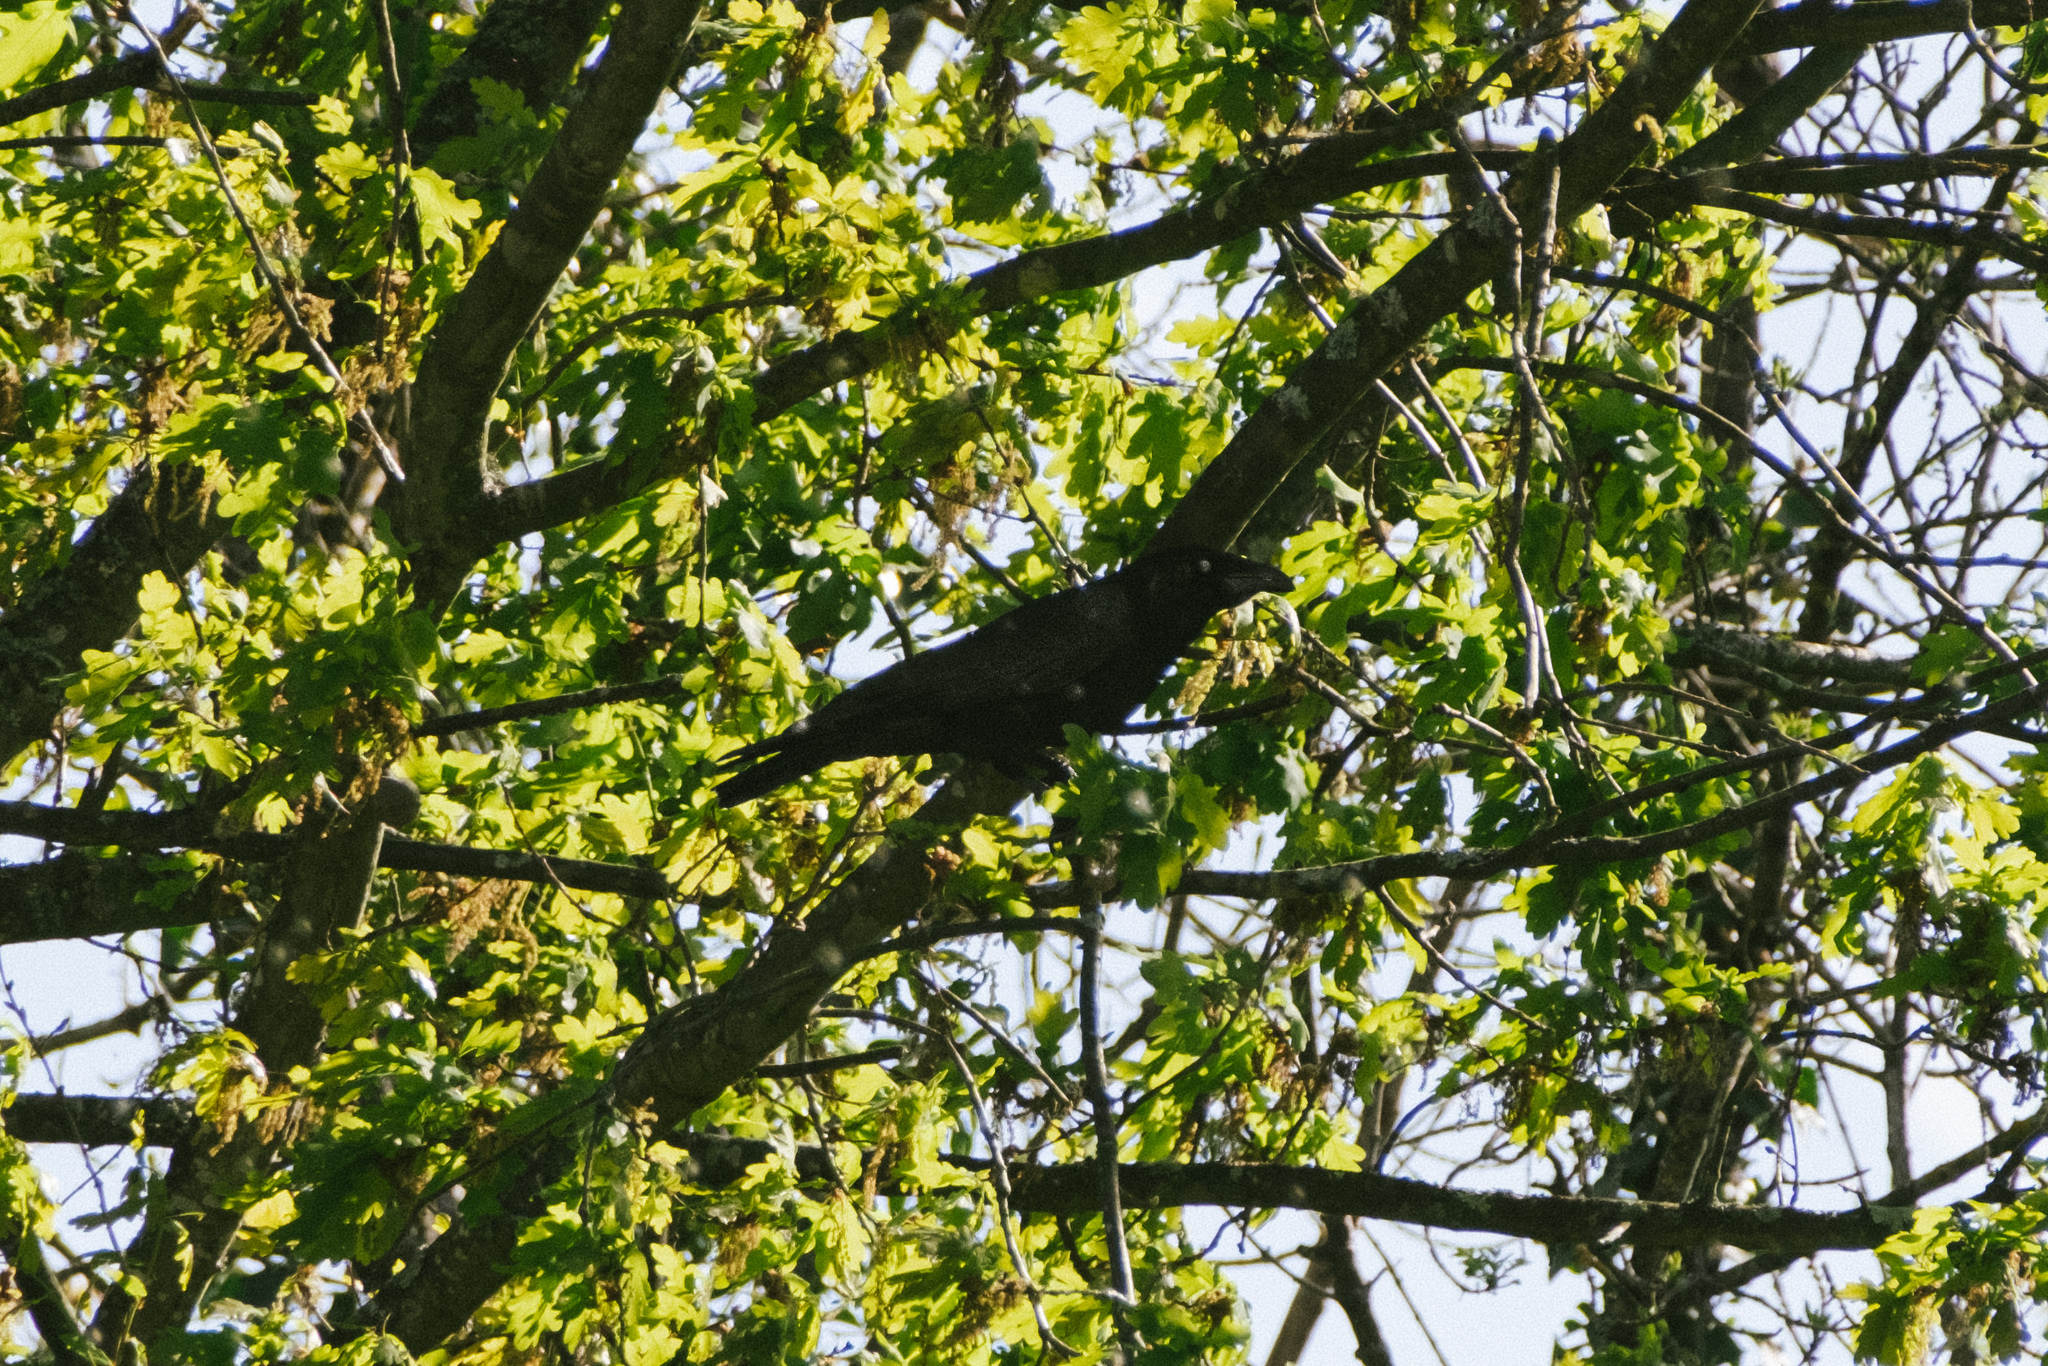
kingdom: Animalia
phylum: Chordata
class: Aves
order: Passeriformes
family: Corvidae
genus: Corvus
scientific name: Corvus corone
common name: Carrion crow
